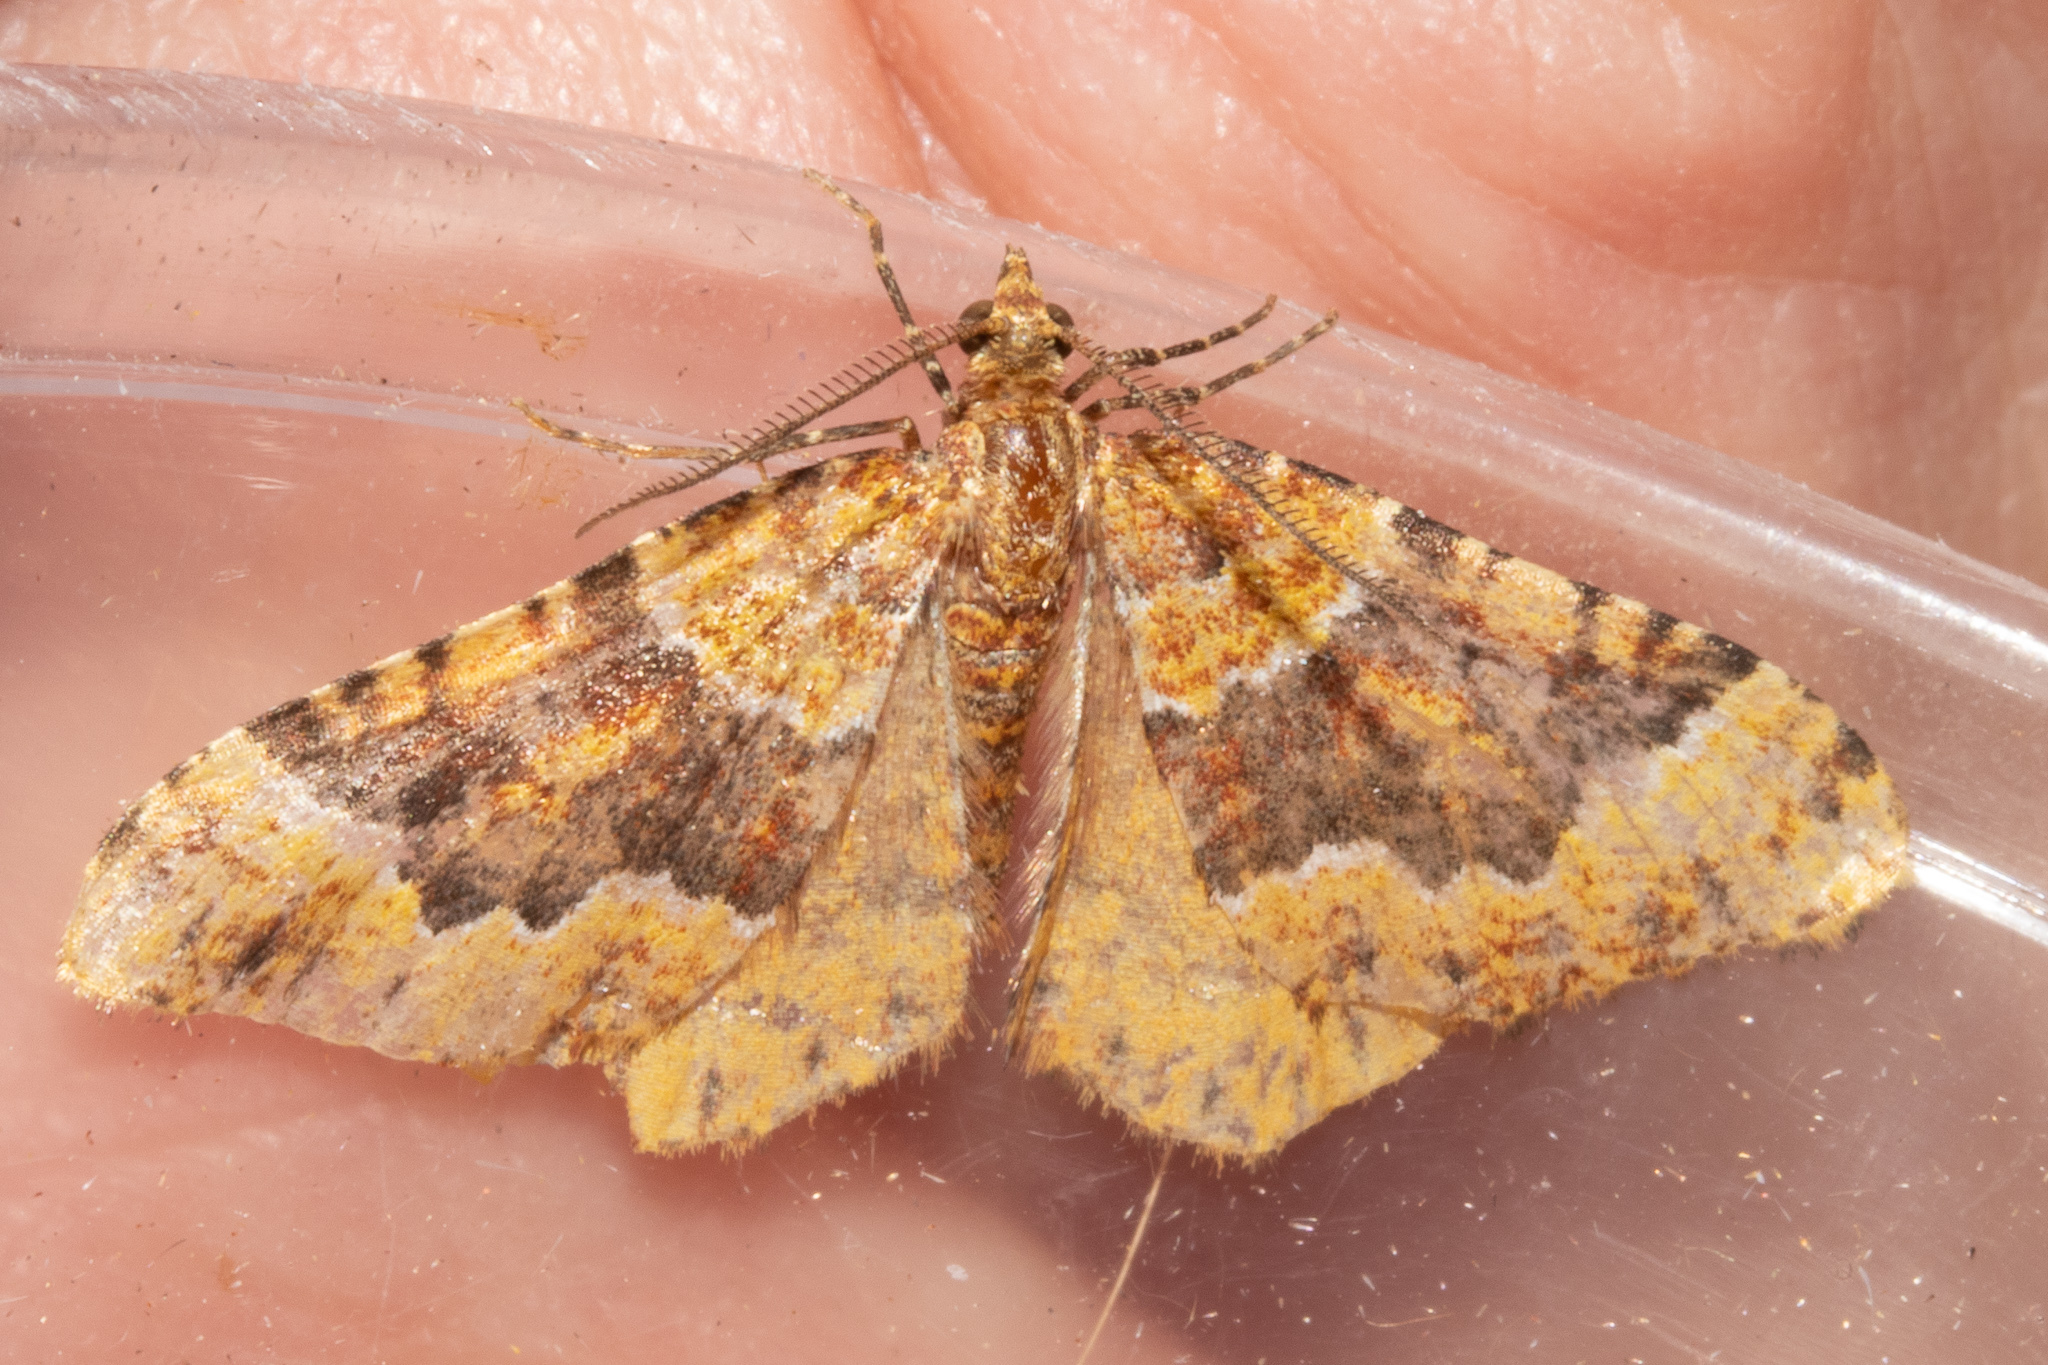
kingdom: Animalia
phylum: Arthropoda
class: Insecta
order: Lepidoptera
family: Geometridae
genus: Asaphodes
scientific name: Asaphodes prasinias
